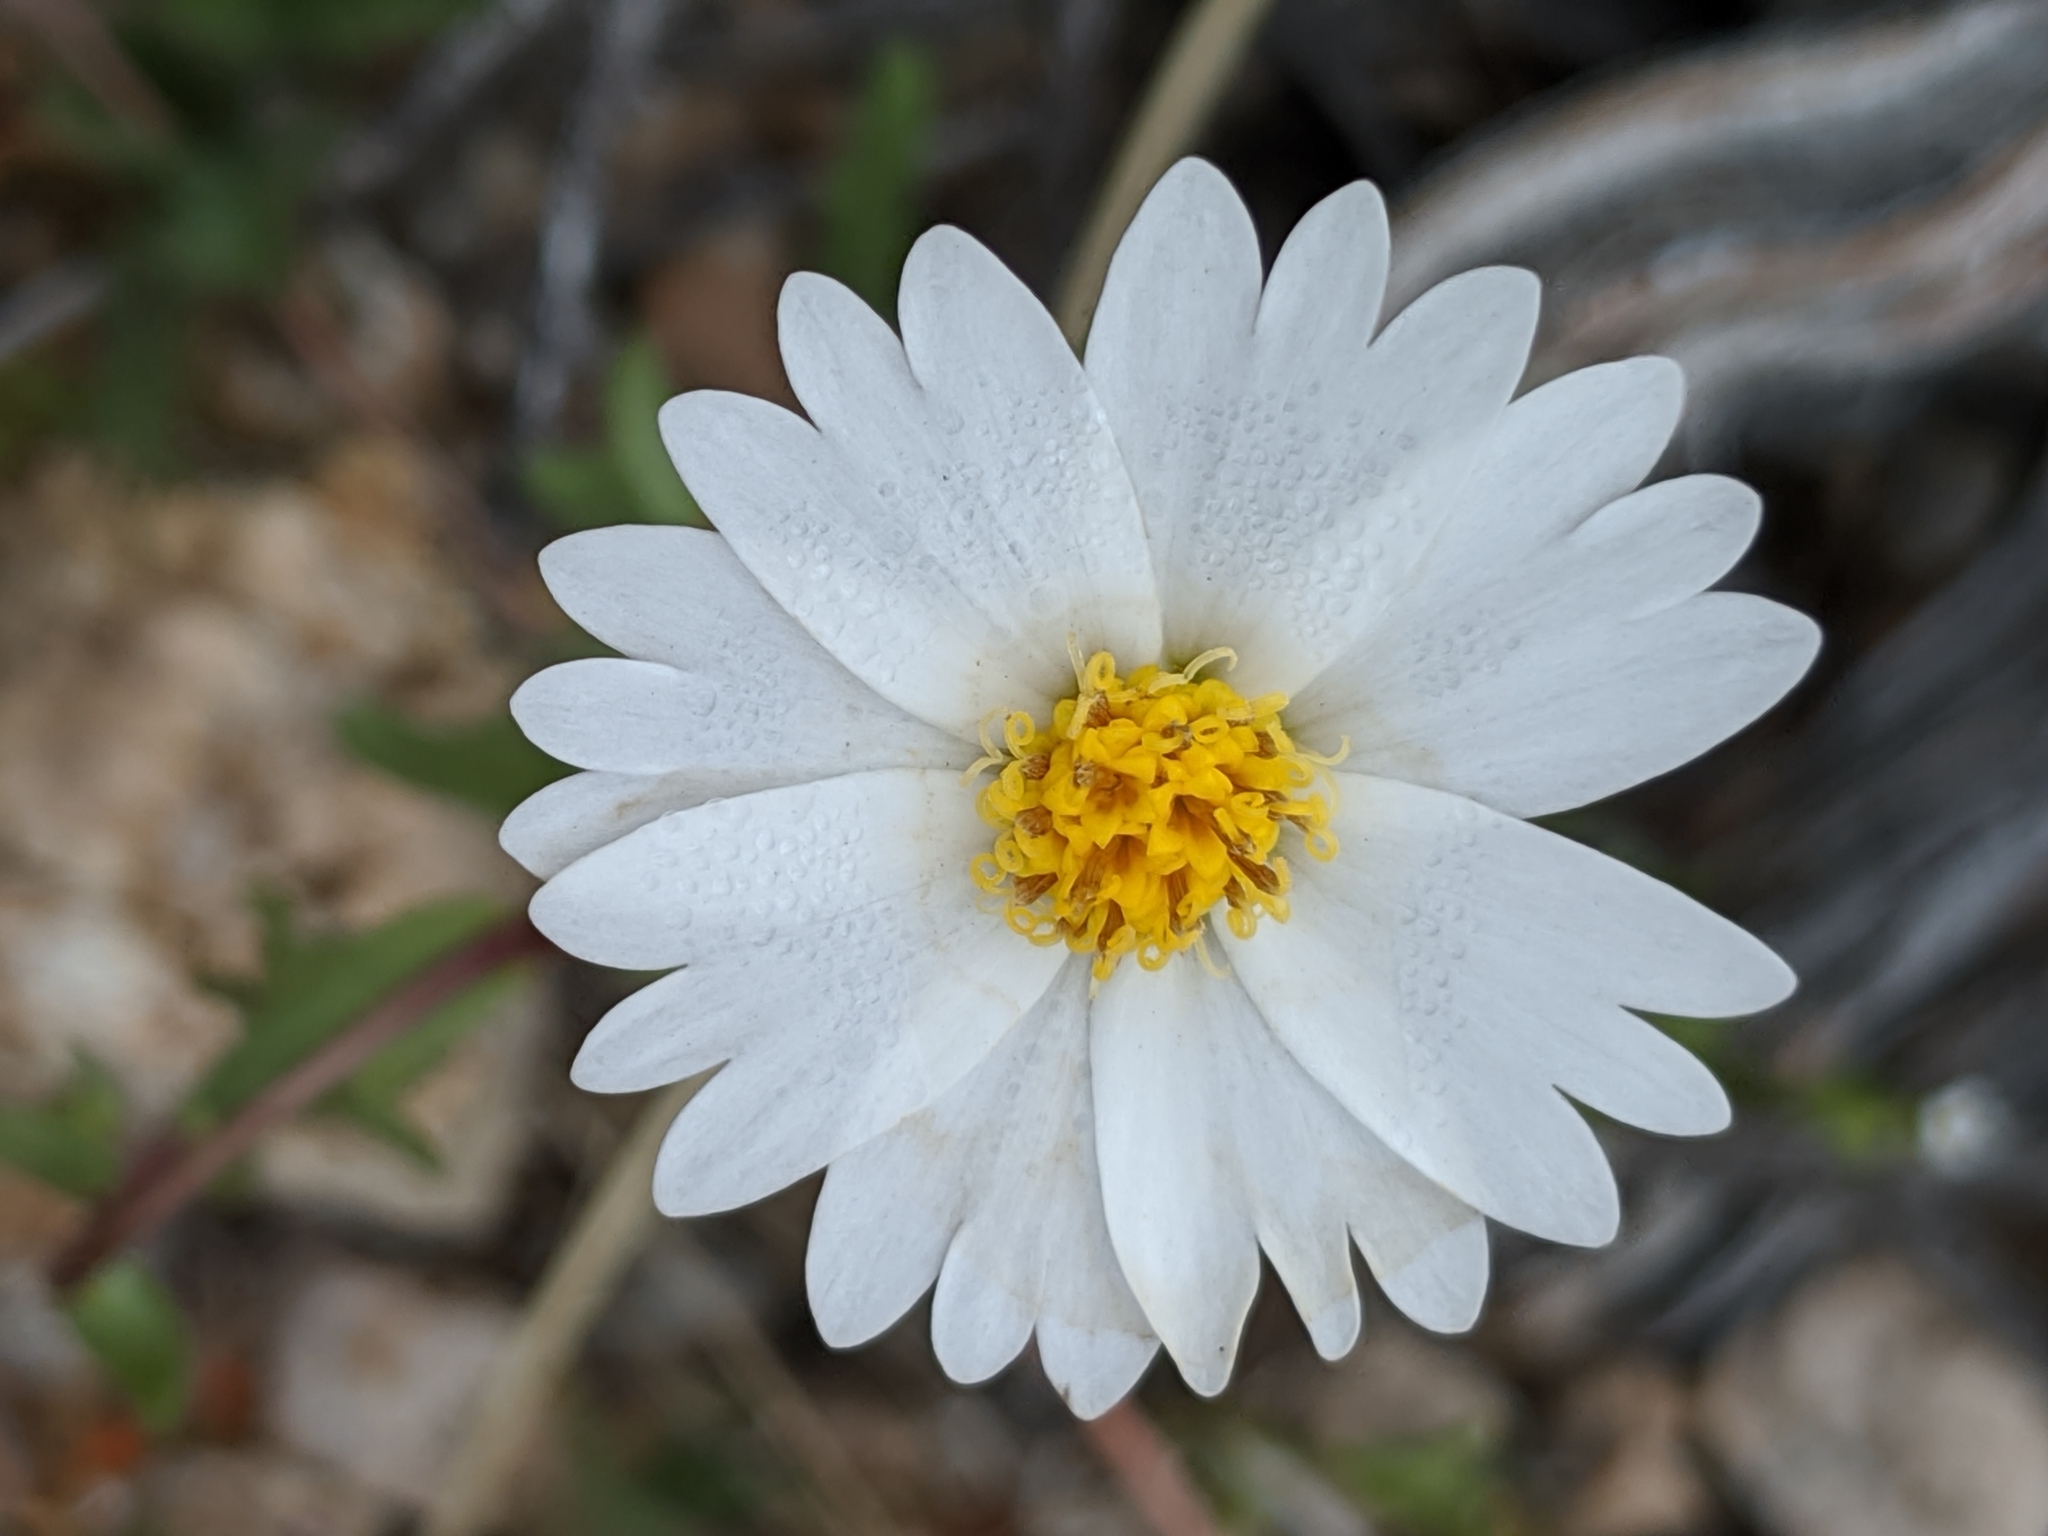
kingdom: Plantae
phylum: Tracheophyta
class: Magnoliopsida
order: Asterales
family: Asteraceae
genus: Layia
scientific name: Layia glandulosa
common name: White layia
